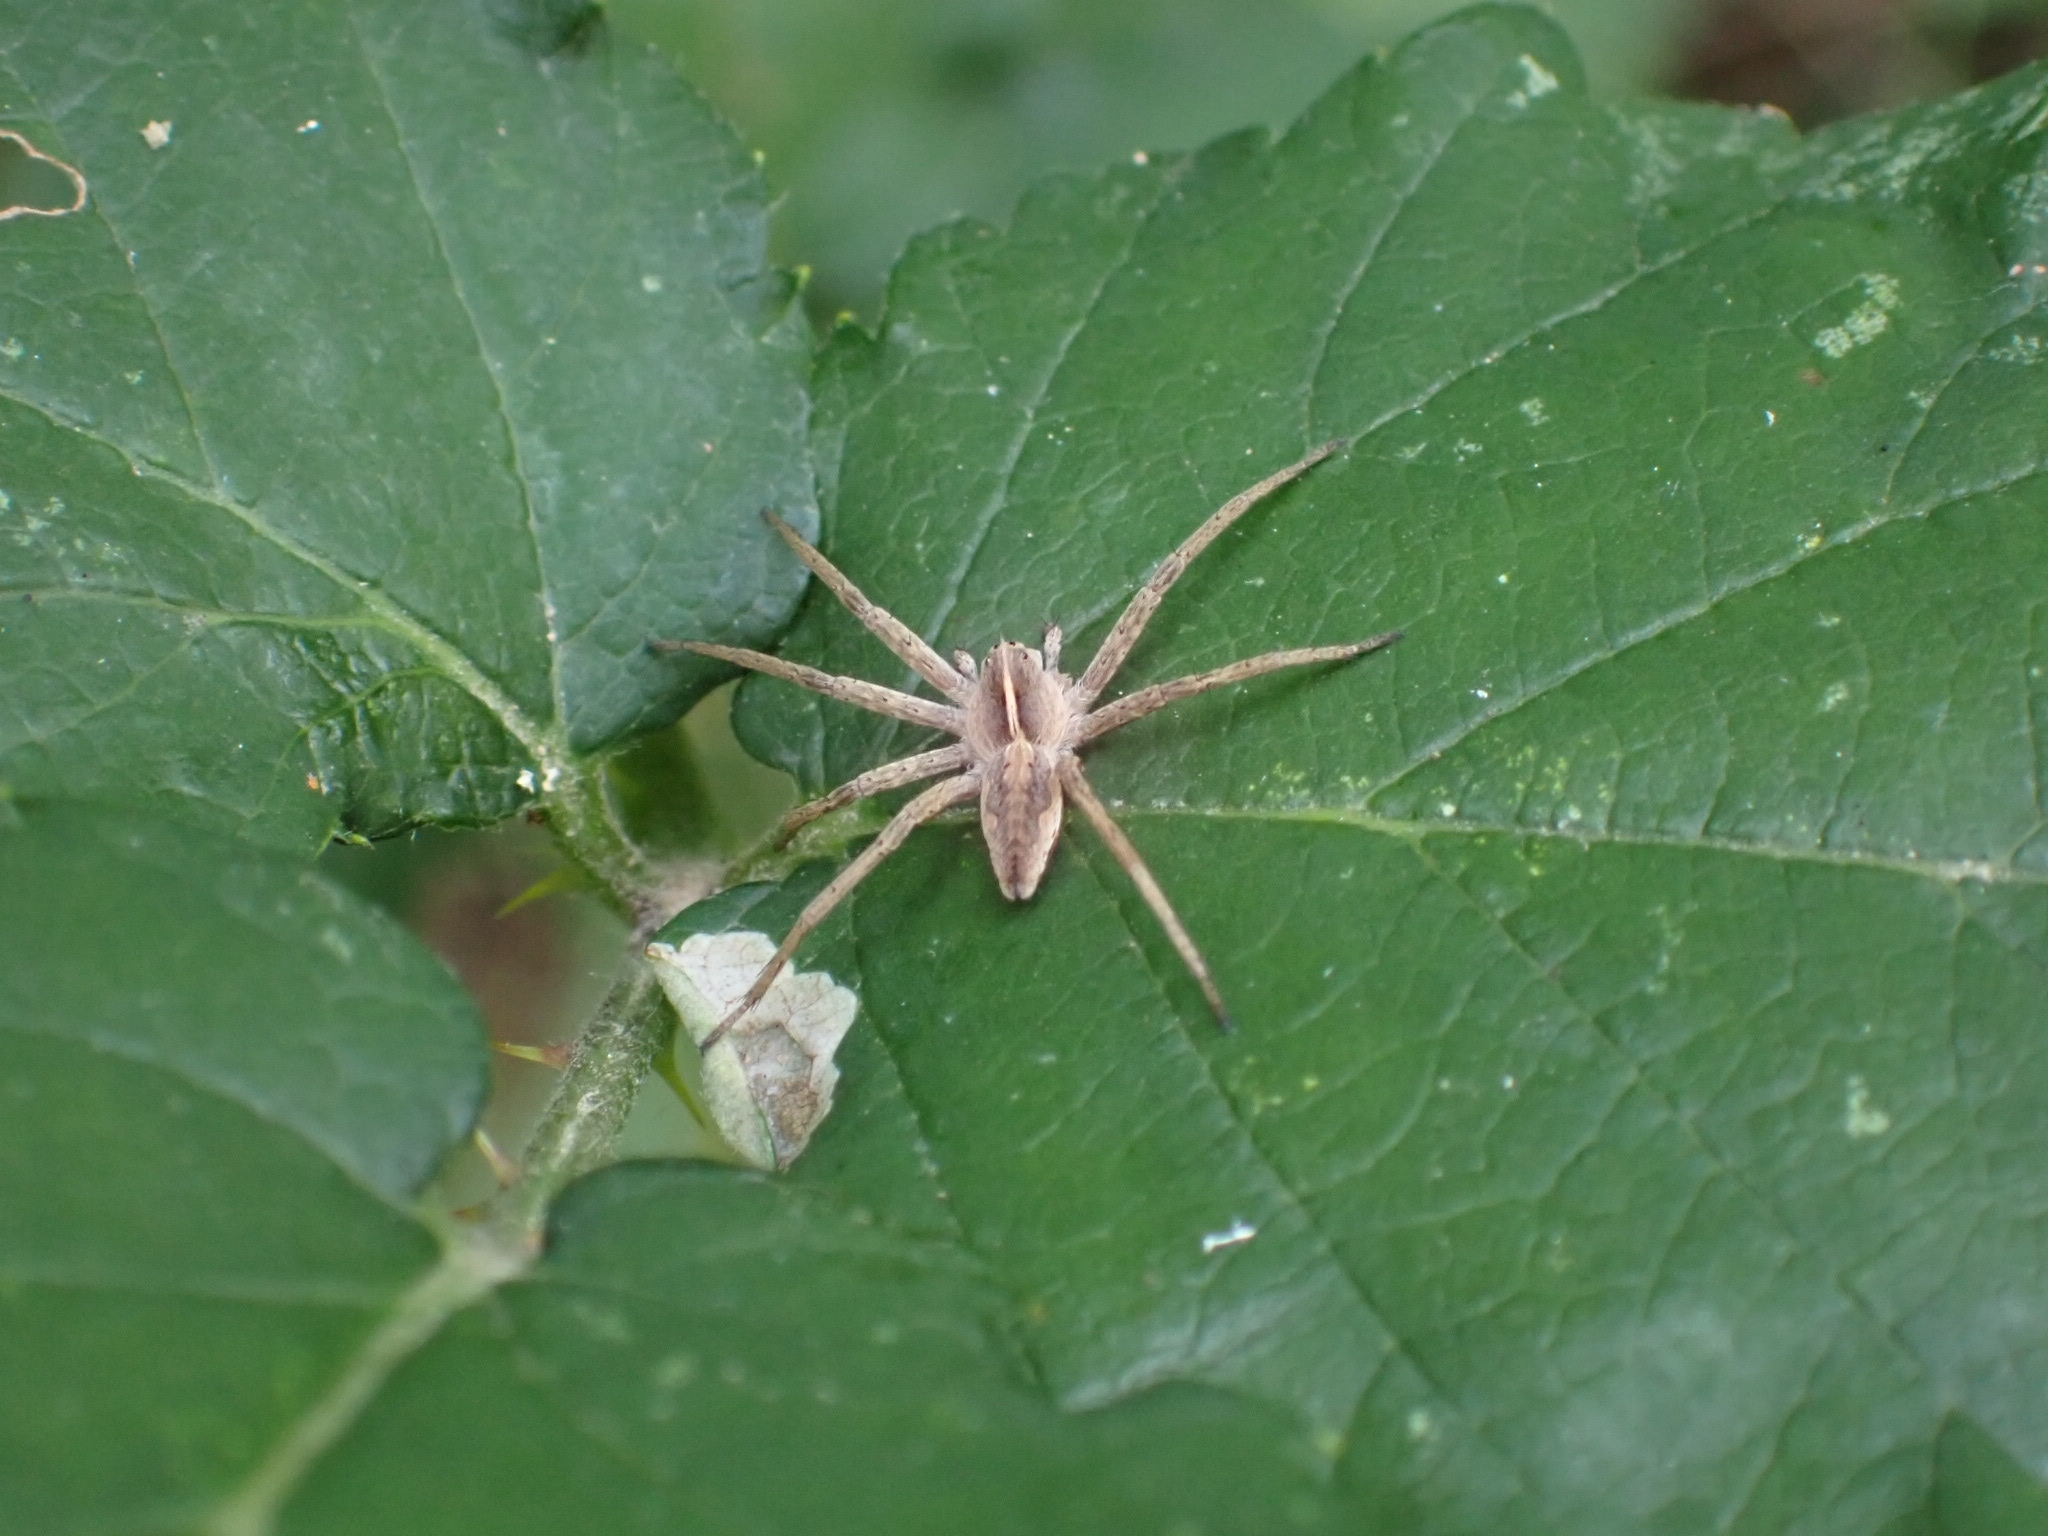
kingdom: Animalia
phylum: Arthropoda
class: Arachnida
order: Araneae
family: Pisauridae
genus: Pisaura
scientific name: Pisaura mirabilis
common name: Tent spider
